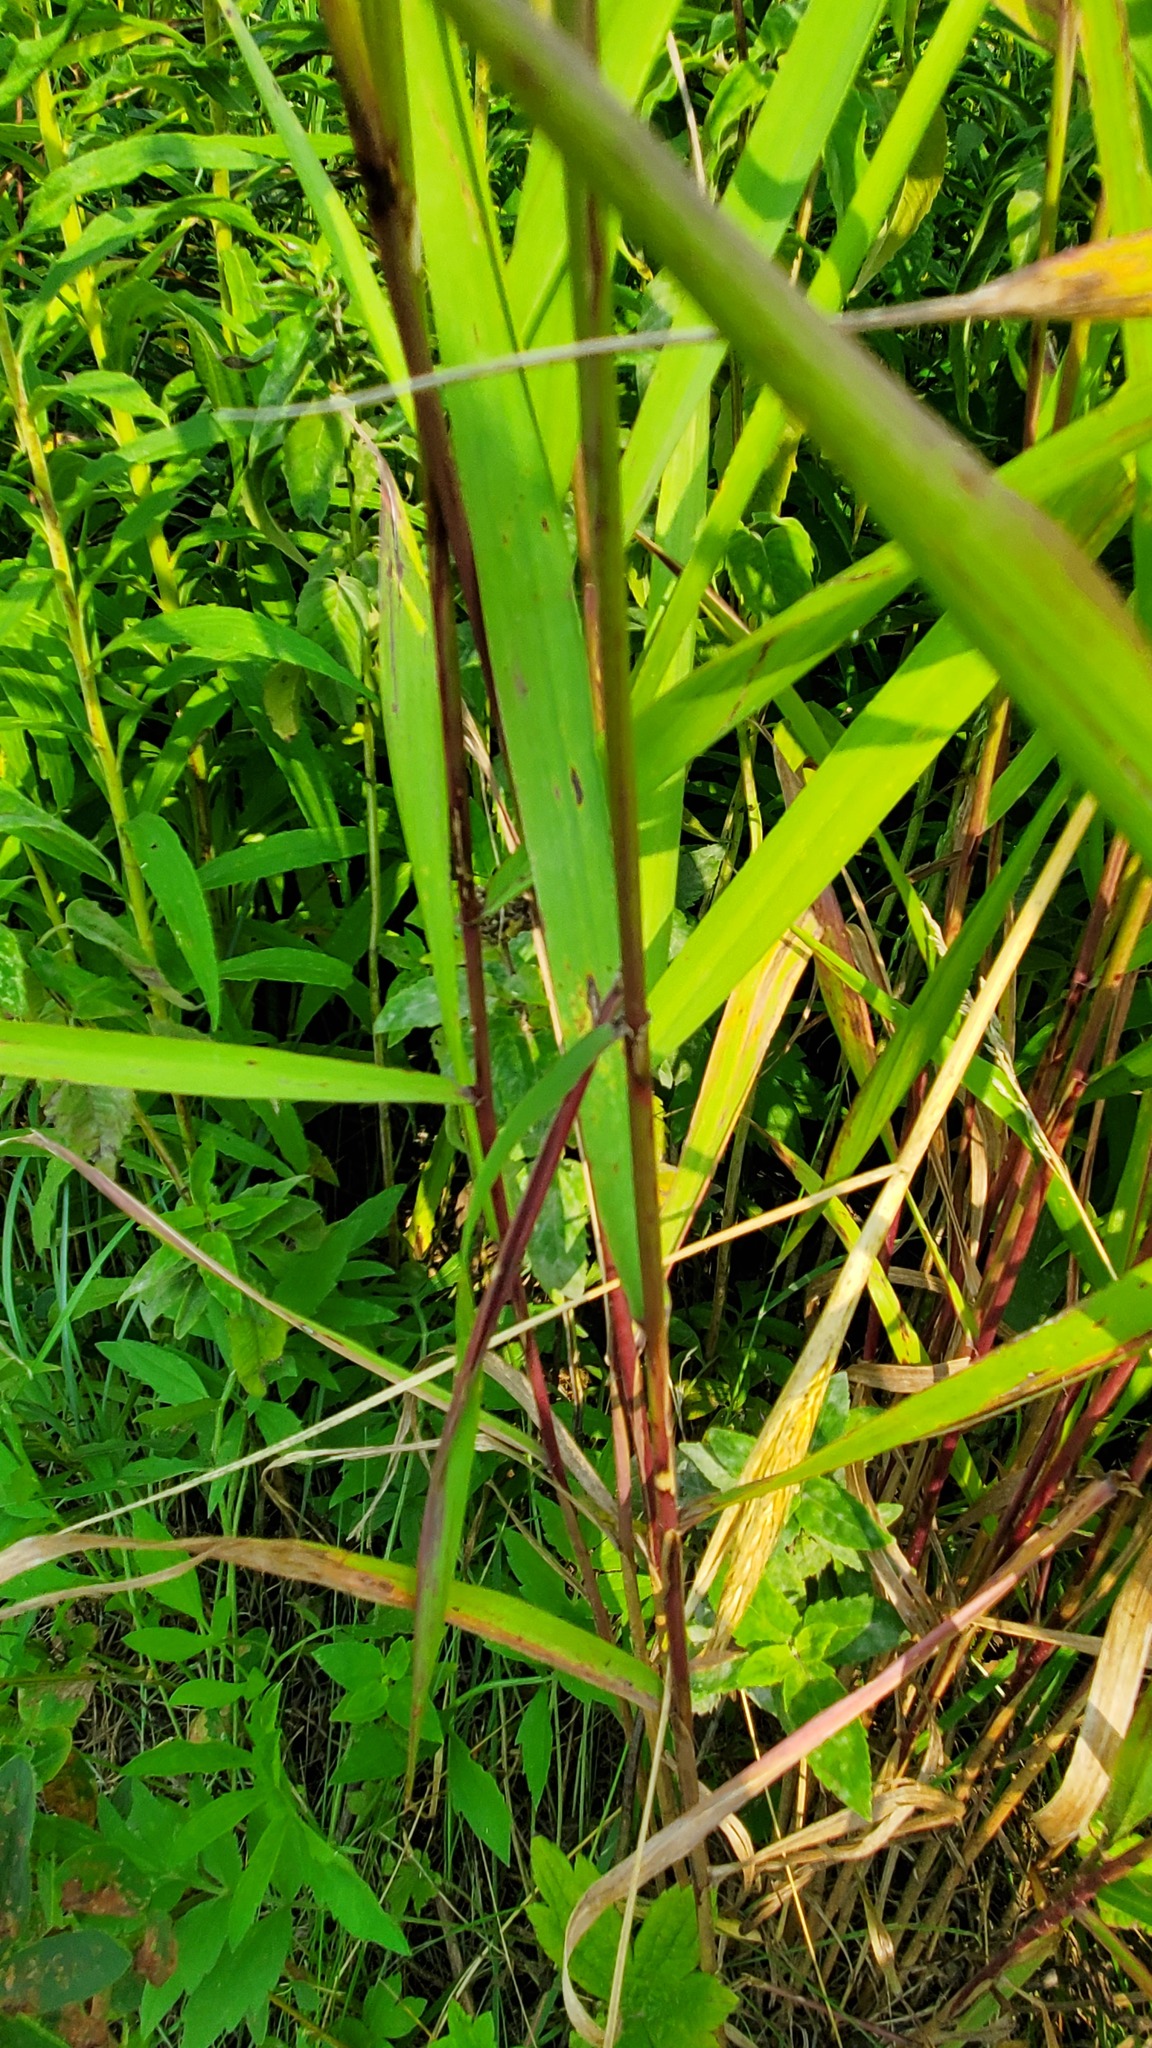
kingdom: Plantae
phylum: Tracheophyta
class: Liliopsida
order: Poales
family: Poaceae
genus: Elymus
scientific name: Elymus virginicus
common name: Common eastern wildrye
